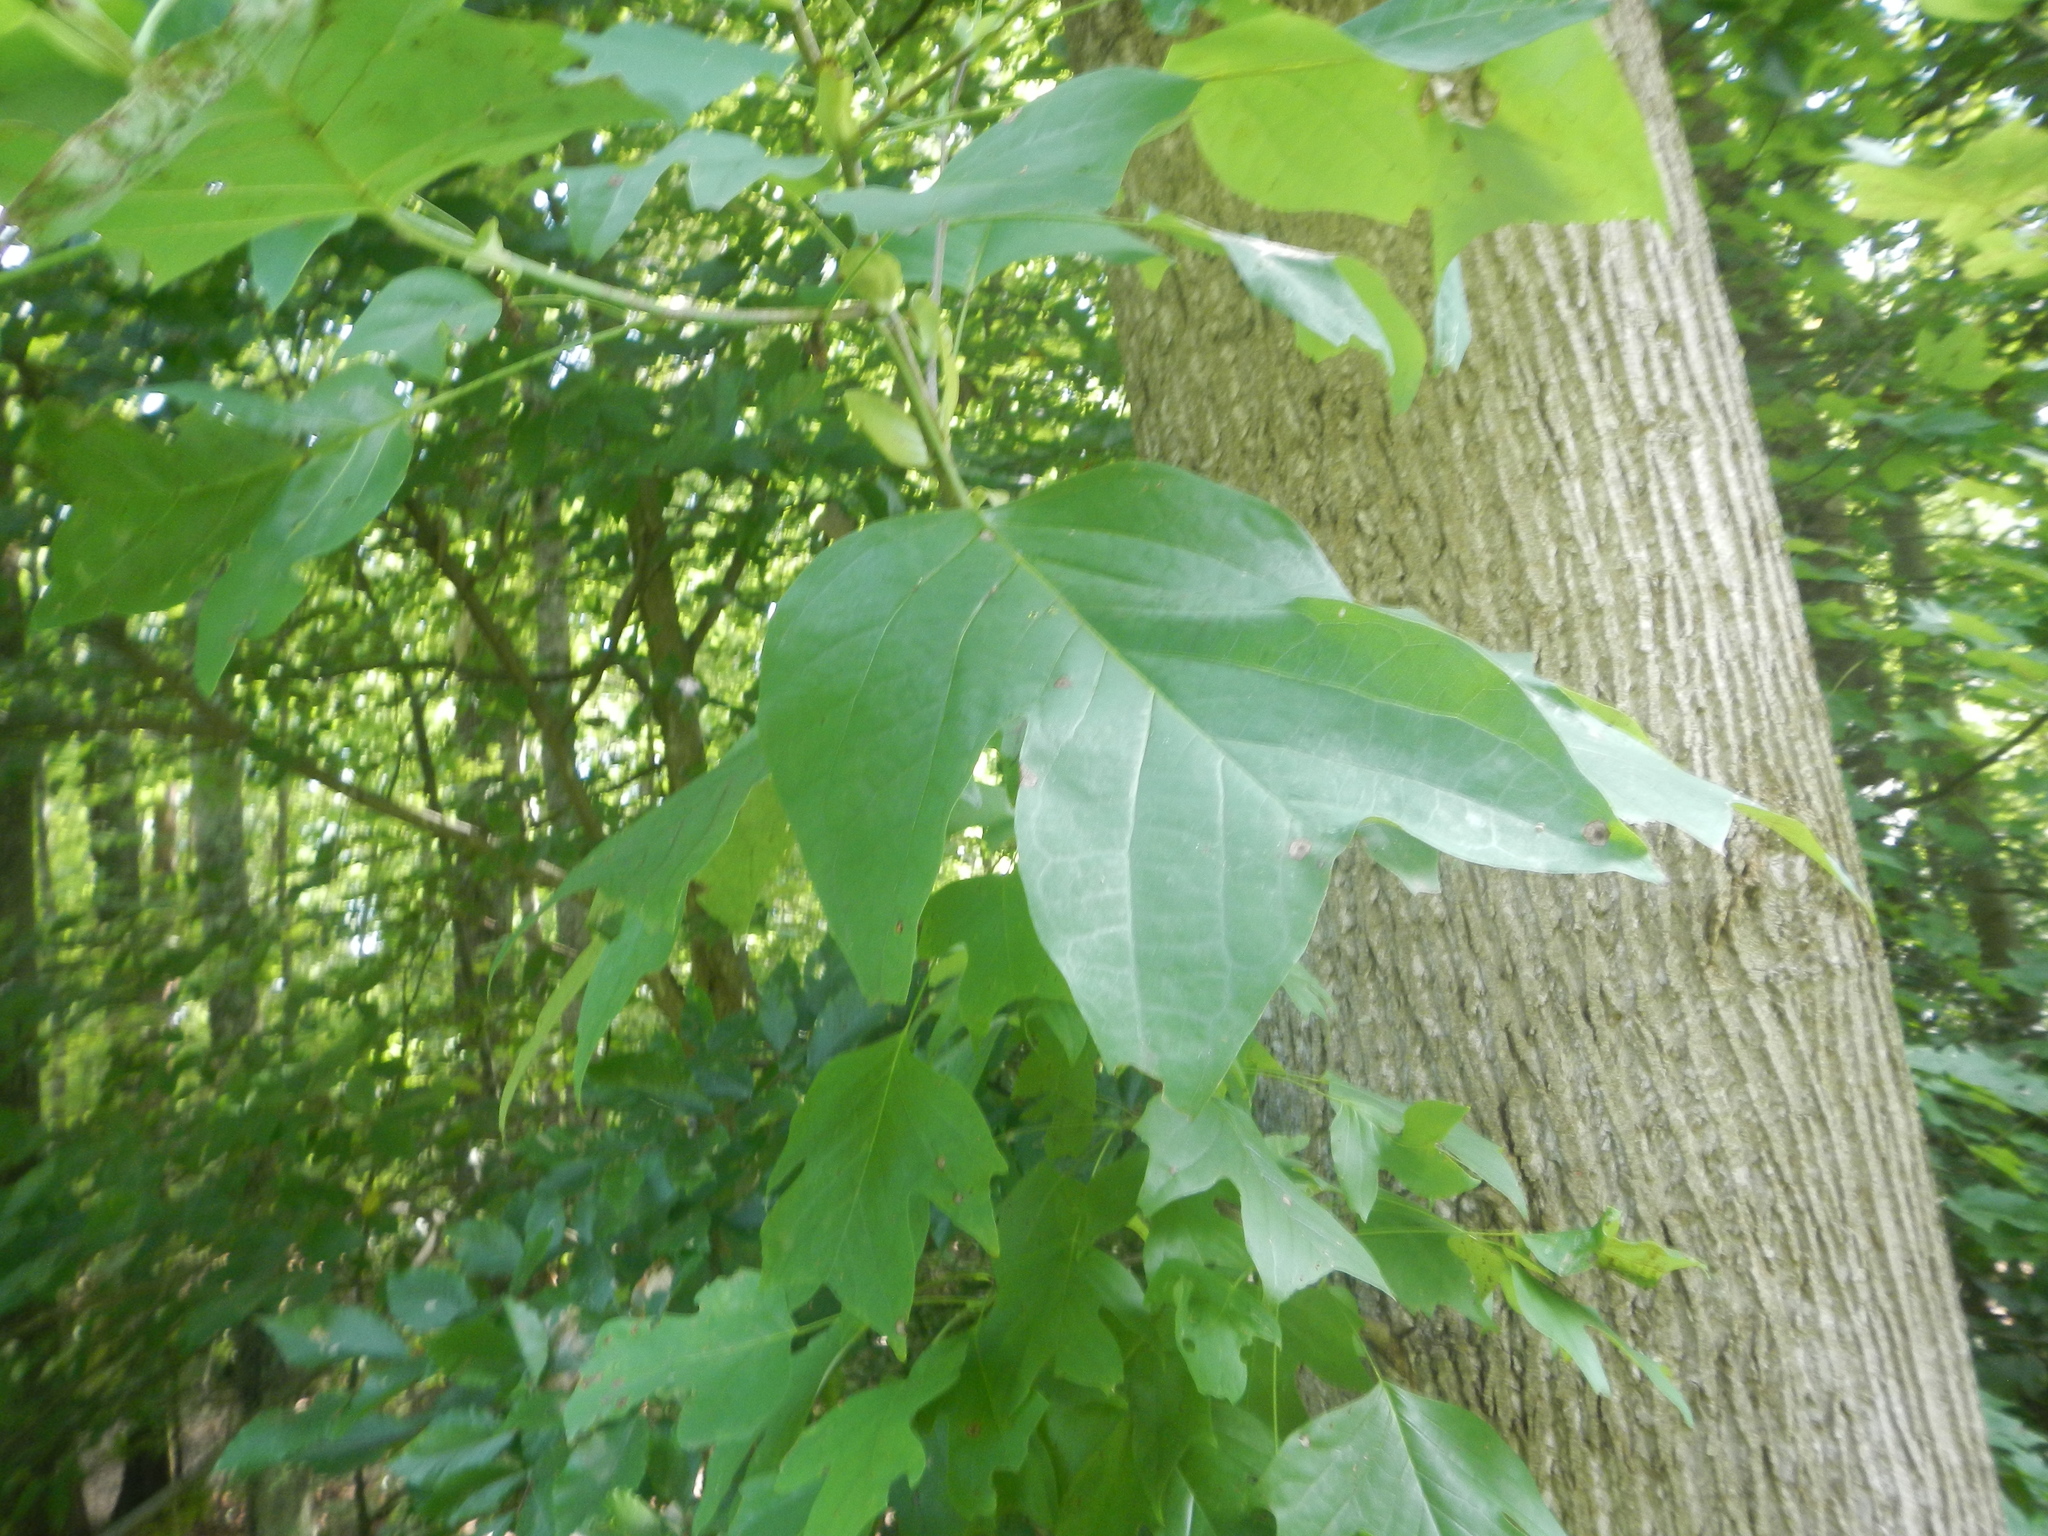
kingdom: Plantae
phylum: Tracheophyta
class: Magnoliopsida
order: Magnoliales
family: Magnoliaceae
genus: Liriodendron
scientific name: Liriodendron tulipifera
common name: Tulip tree
